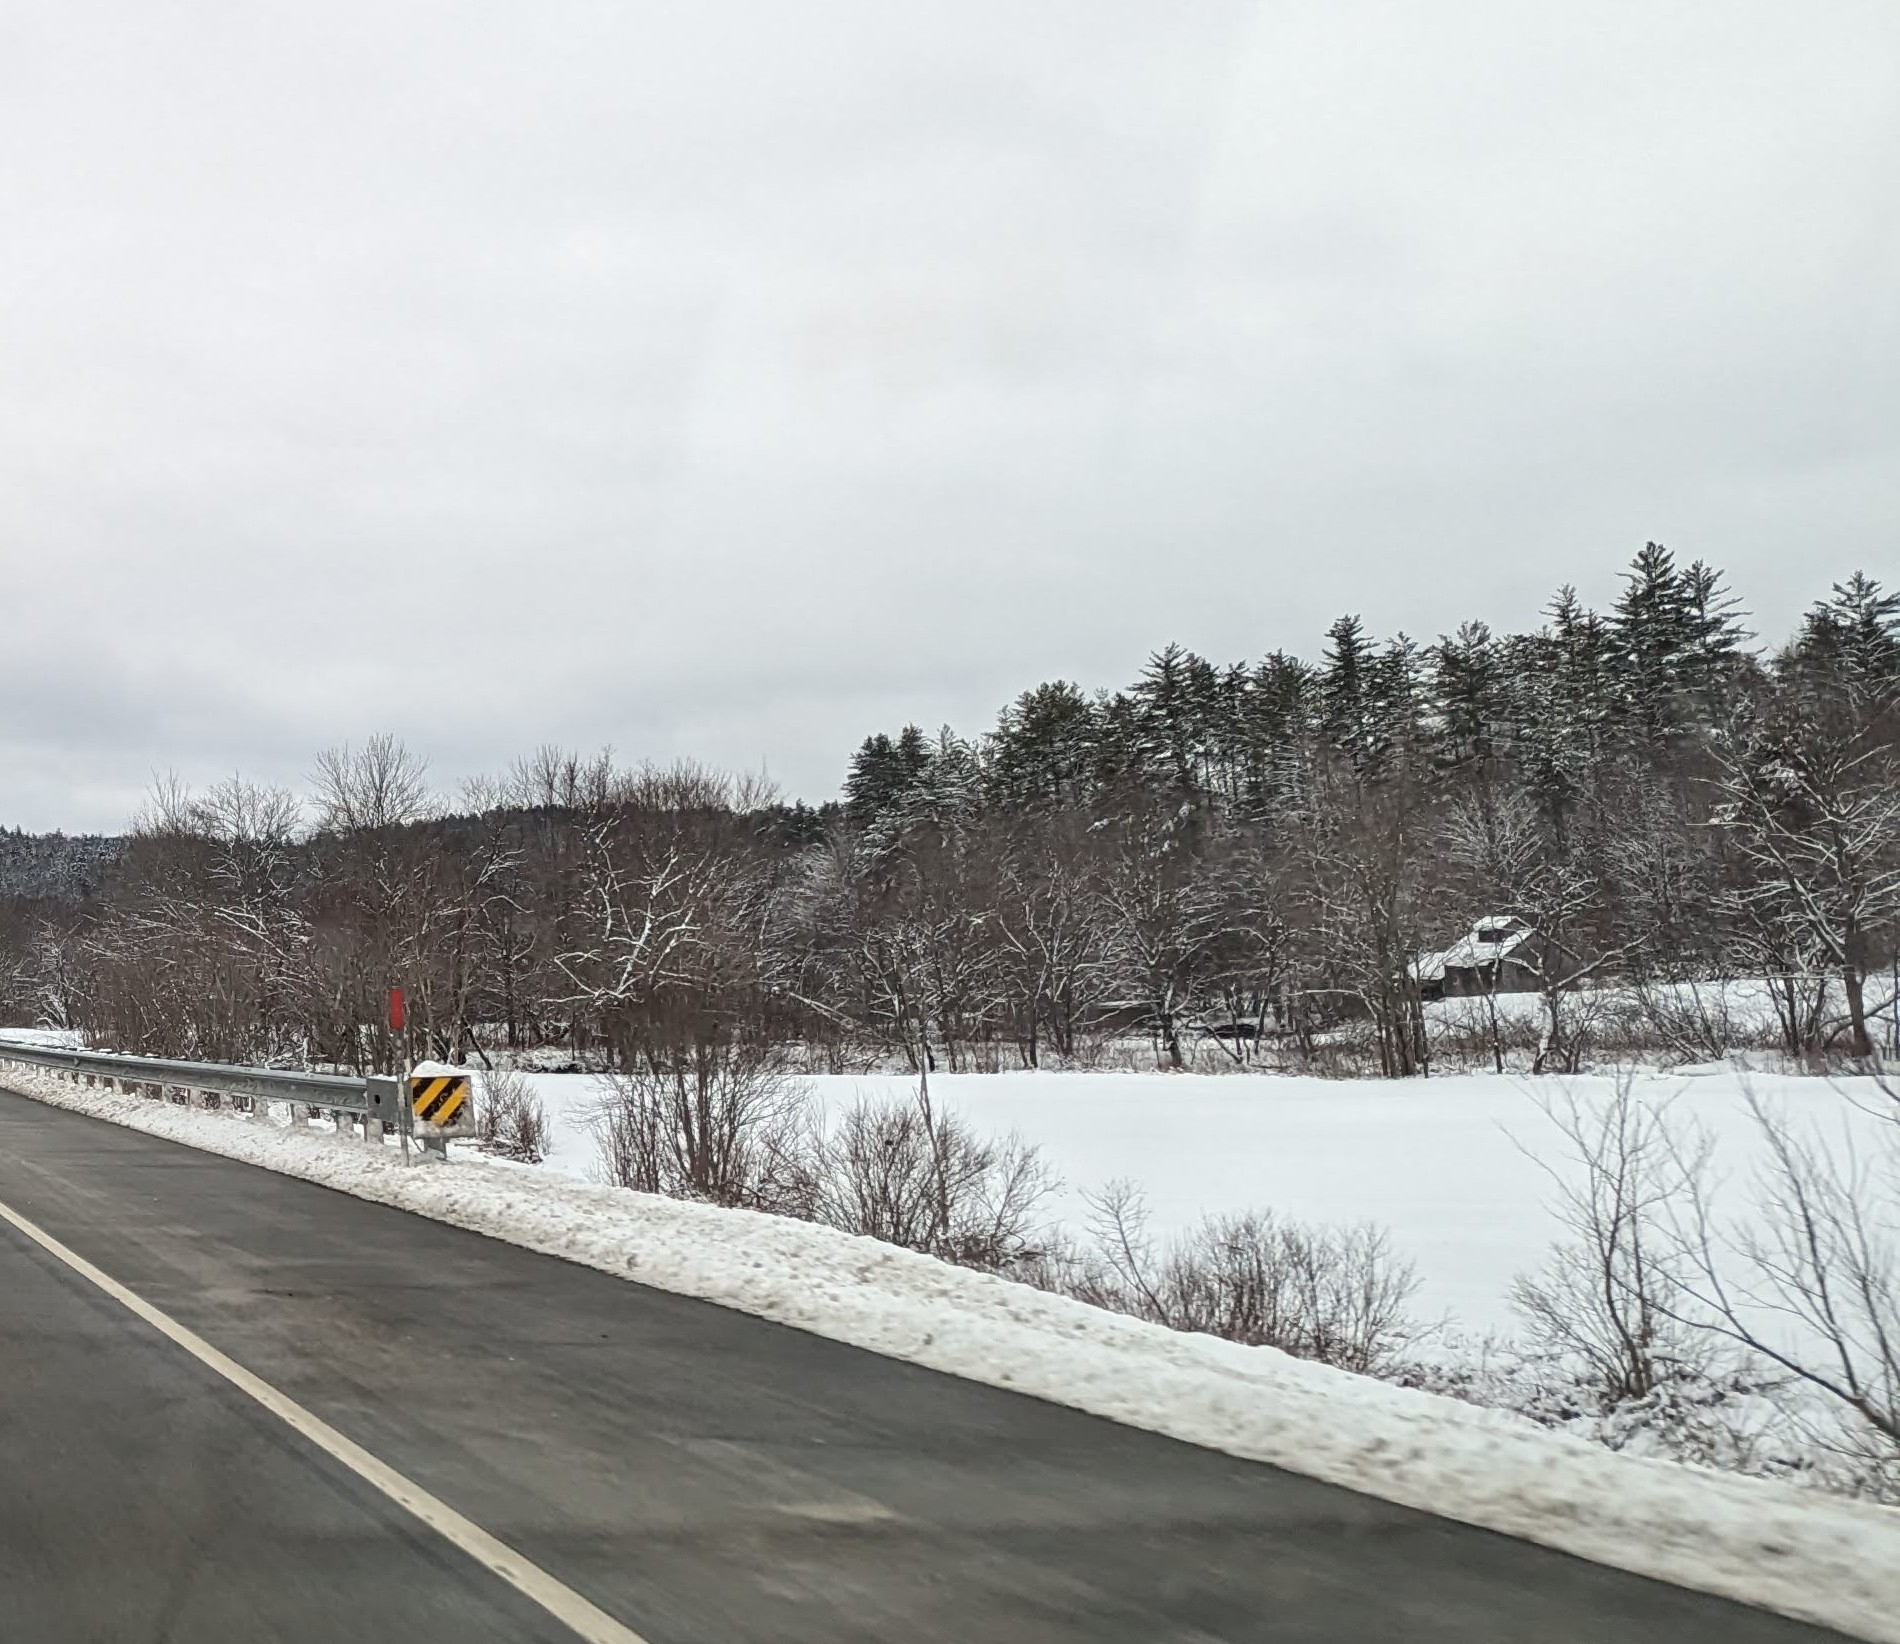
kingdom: Plantae
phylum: Tracheophyta
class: Pinopsida
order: Pinales
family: Pinaceae
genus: Pinus
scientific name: Pinus strobus
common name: Weymouth pine
